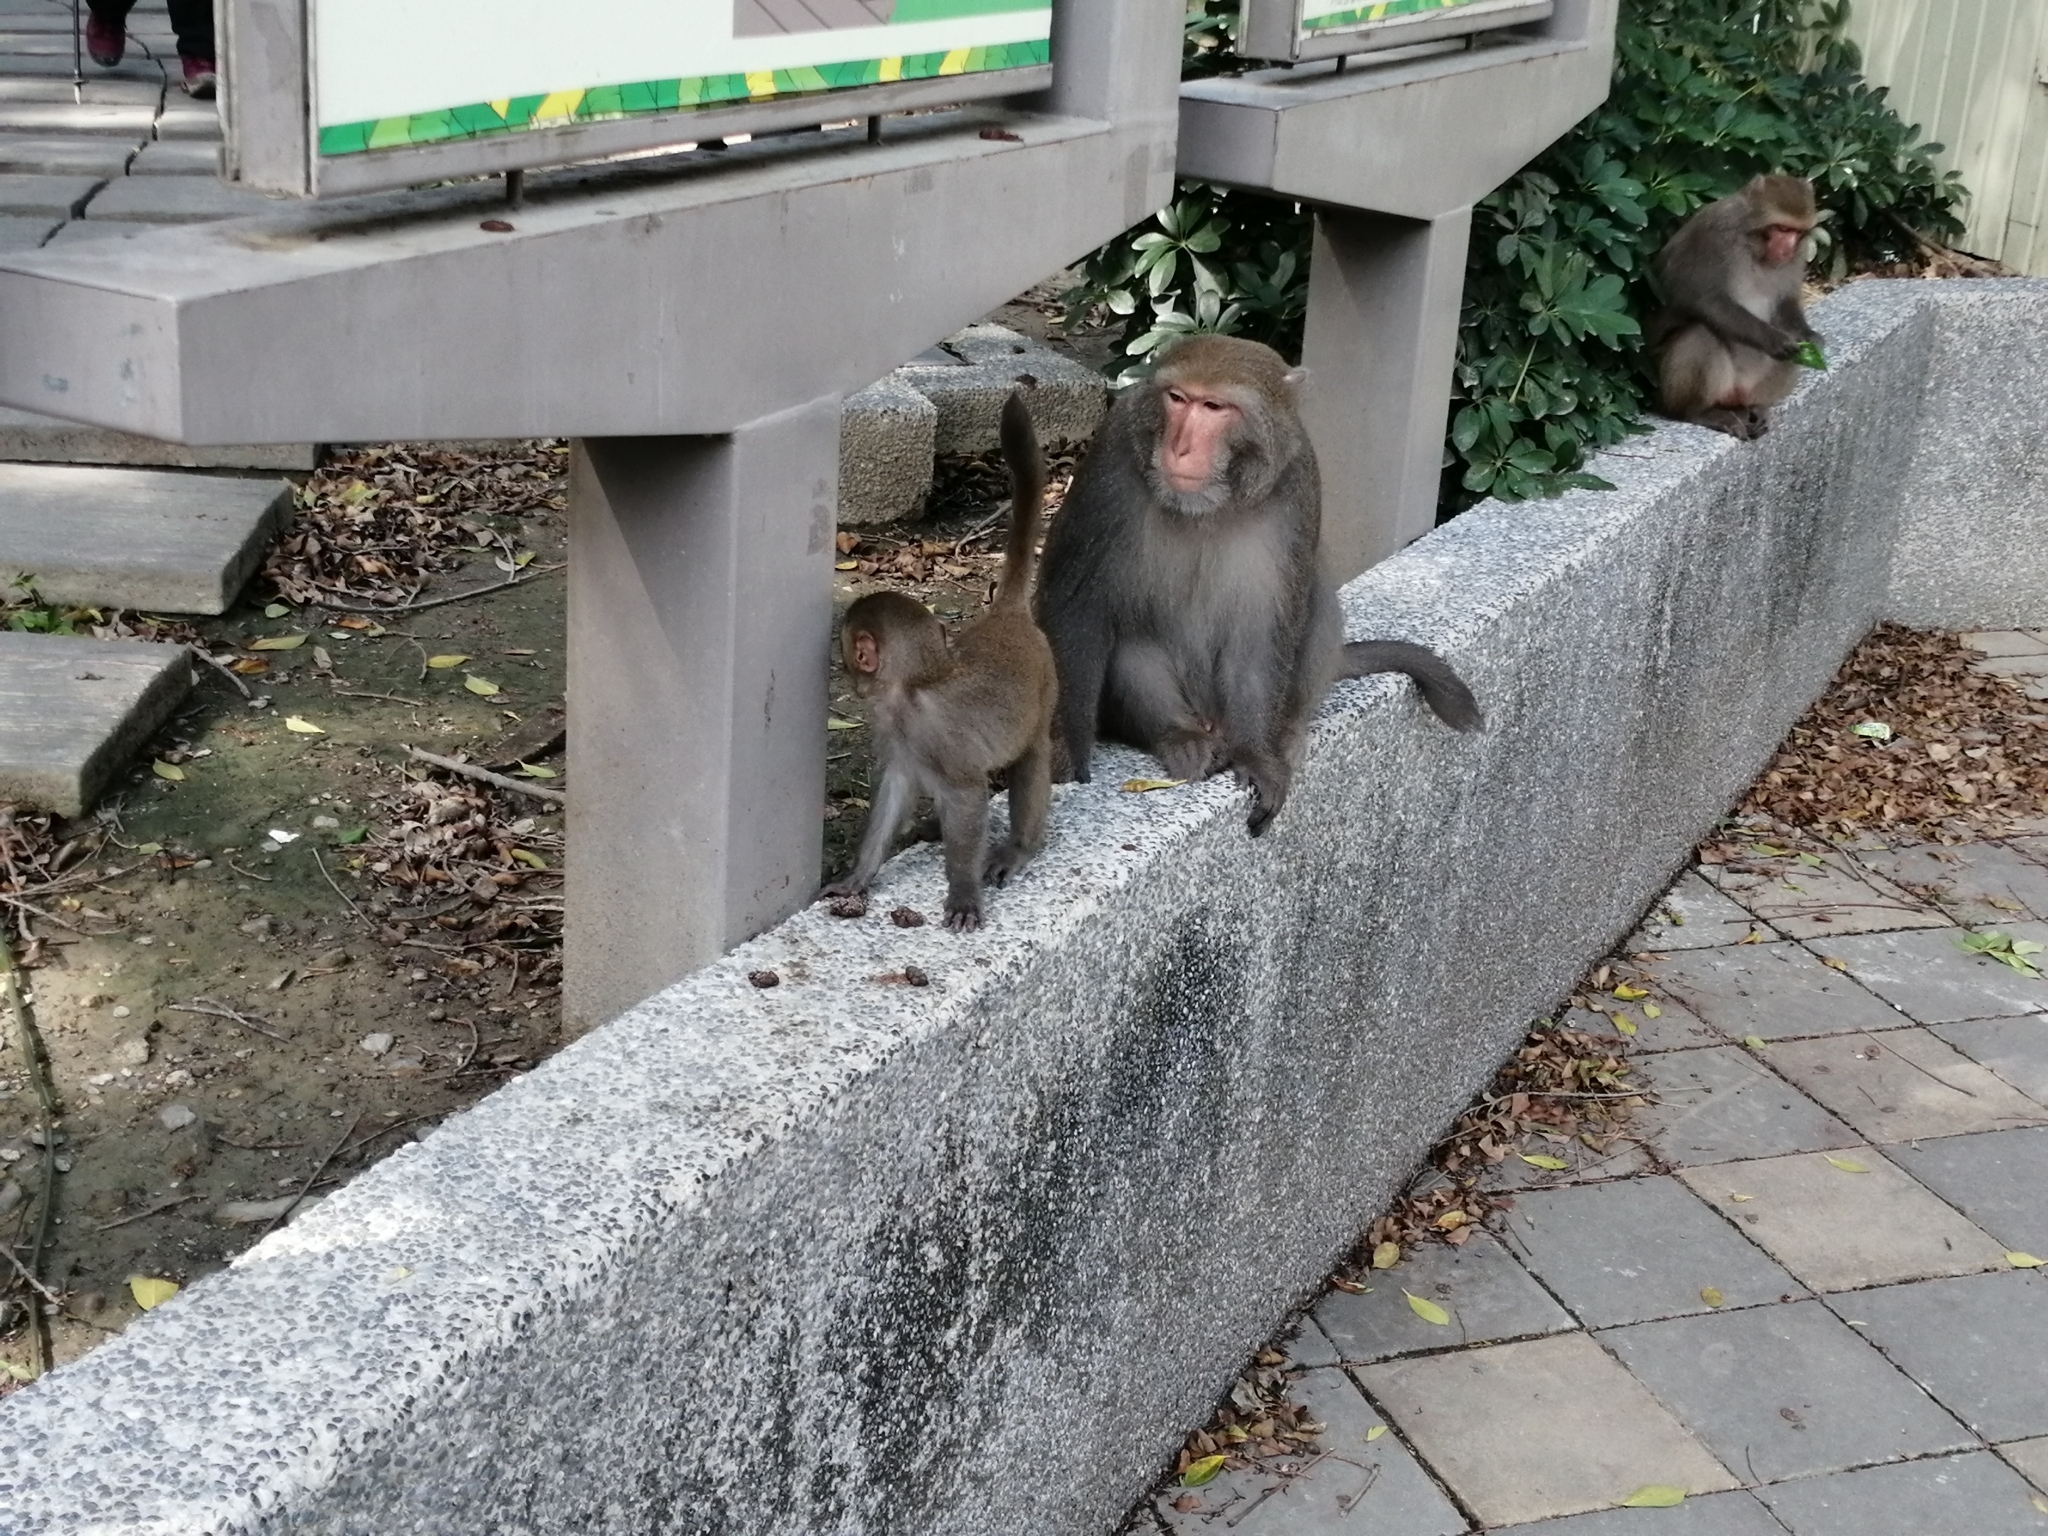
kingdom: Animalia
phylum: Chordata
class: Mammalia
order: Primates
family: Cercopithecidae
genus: Macaca
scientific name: Macaca cyclopis
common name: Formosan rock macaque
